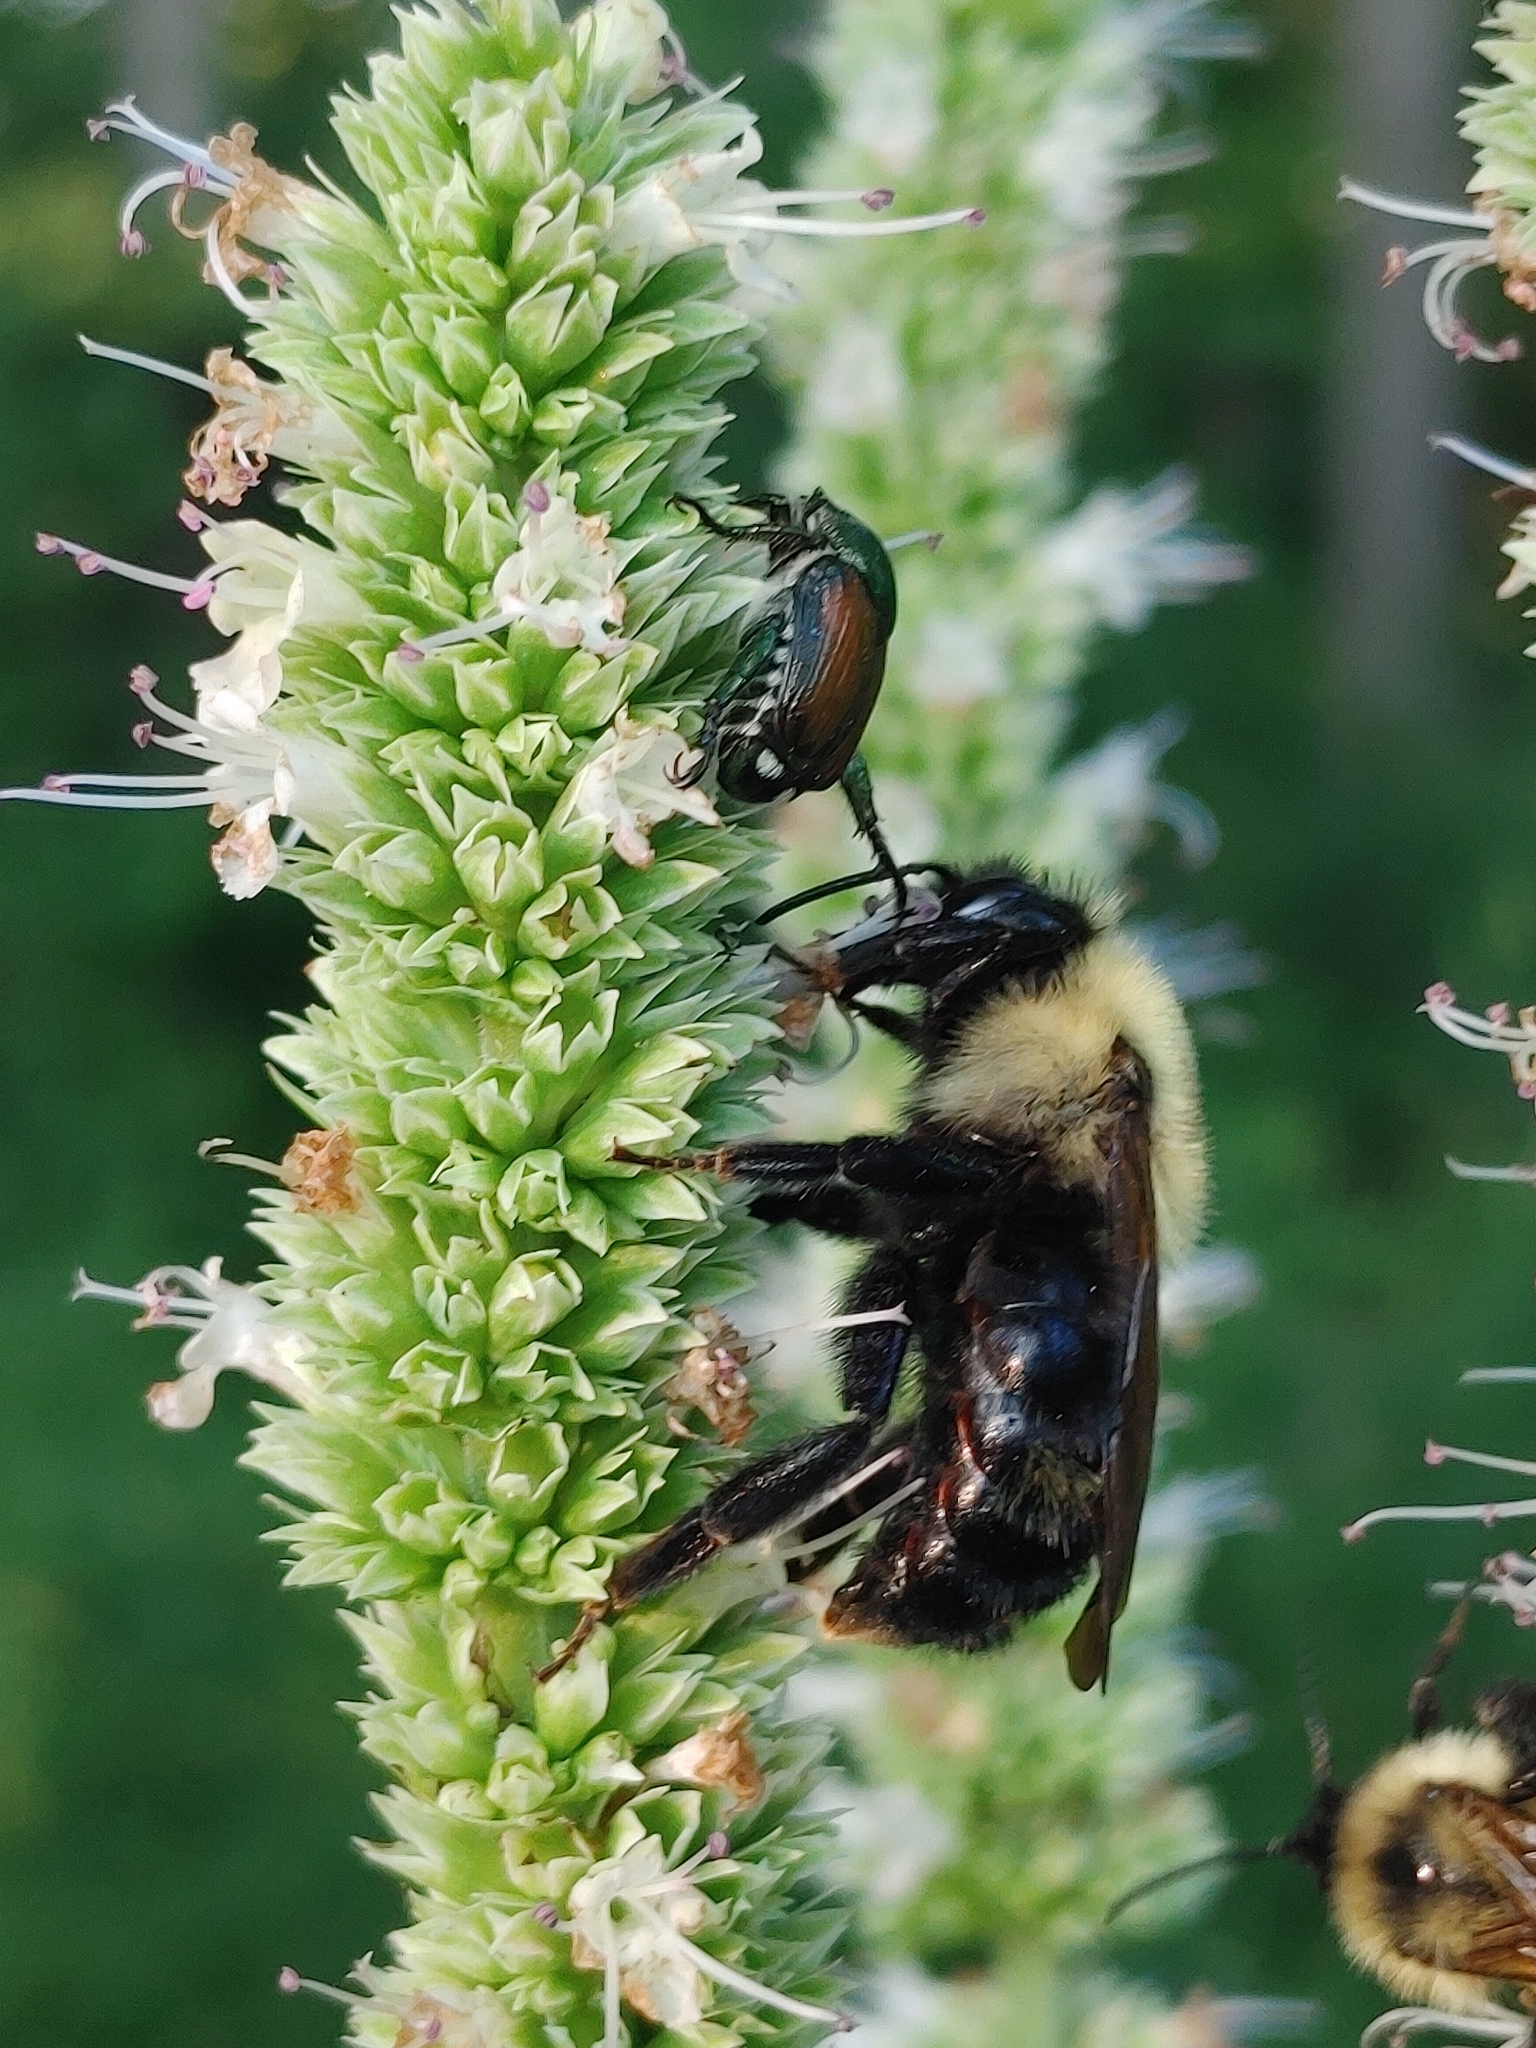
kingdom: Animalia
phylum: Arthropoda
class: Insecta
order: Hymenoptera
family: Apidae
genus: Bombus
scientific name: Bombus citrinus
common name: Lemon cuckoo bumble bee
